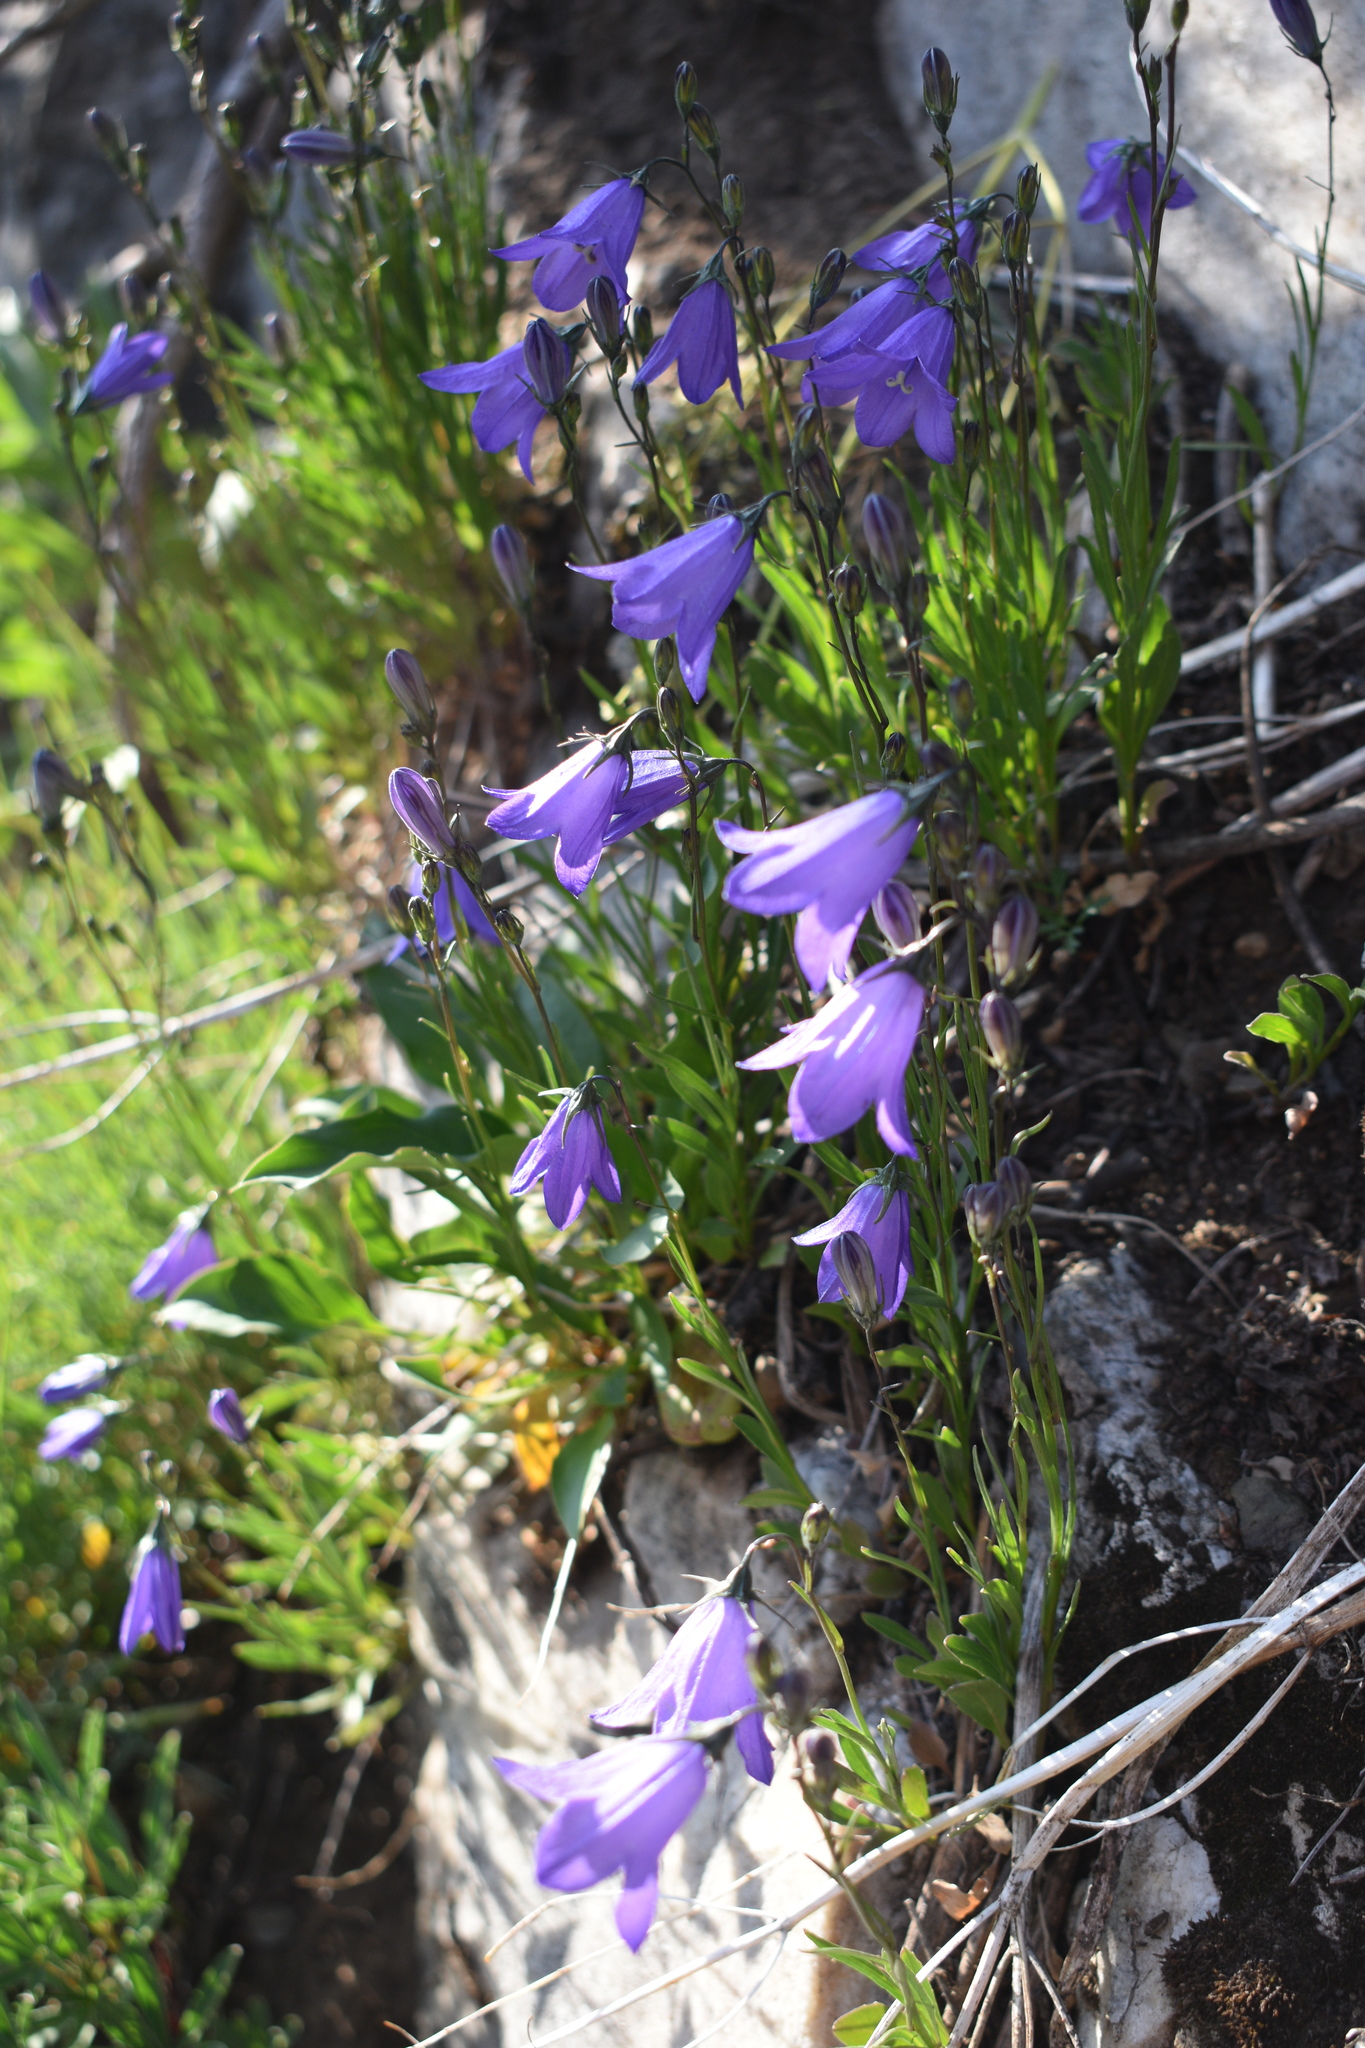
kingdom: Plantae
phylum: Tracheophyta
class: Magnoliopsida
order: Asterales
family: Campanulaceae
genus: Campanula
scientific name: Campanula petiolata
